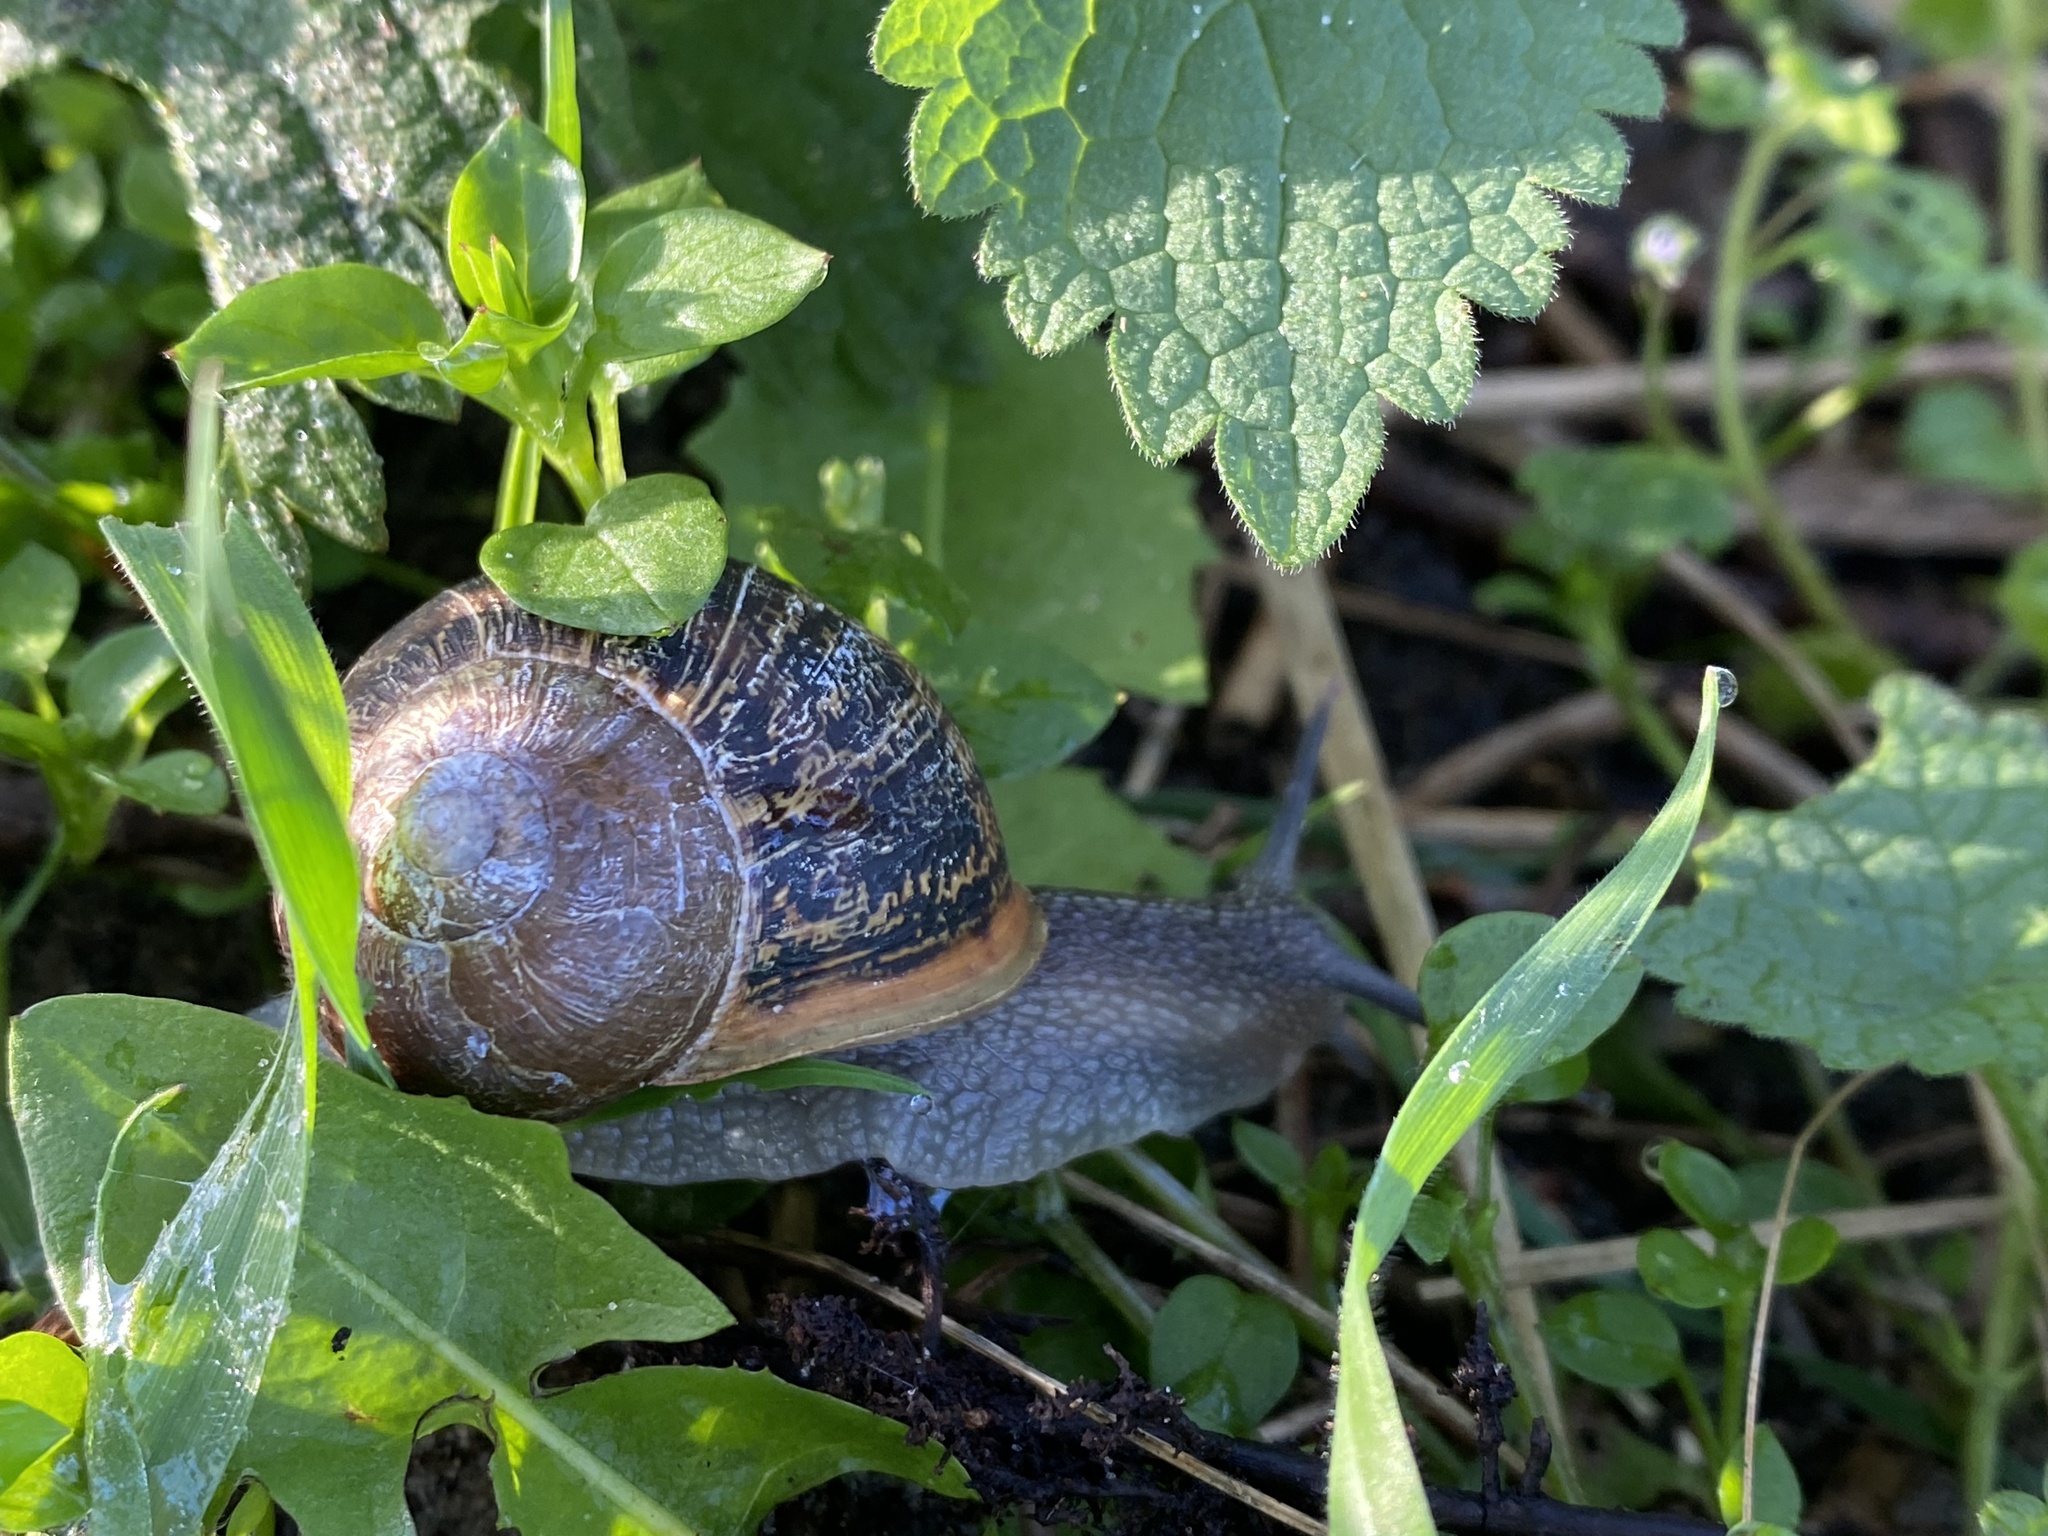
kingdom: Animalia
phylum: Mollusca
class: Gastropoda
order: Stylommatophora
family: Helicidae
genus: Cornu
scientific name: Cornu aspersum
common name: Brown garden snail
